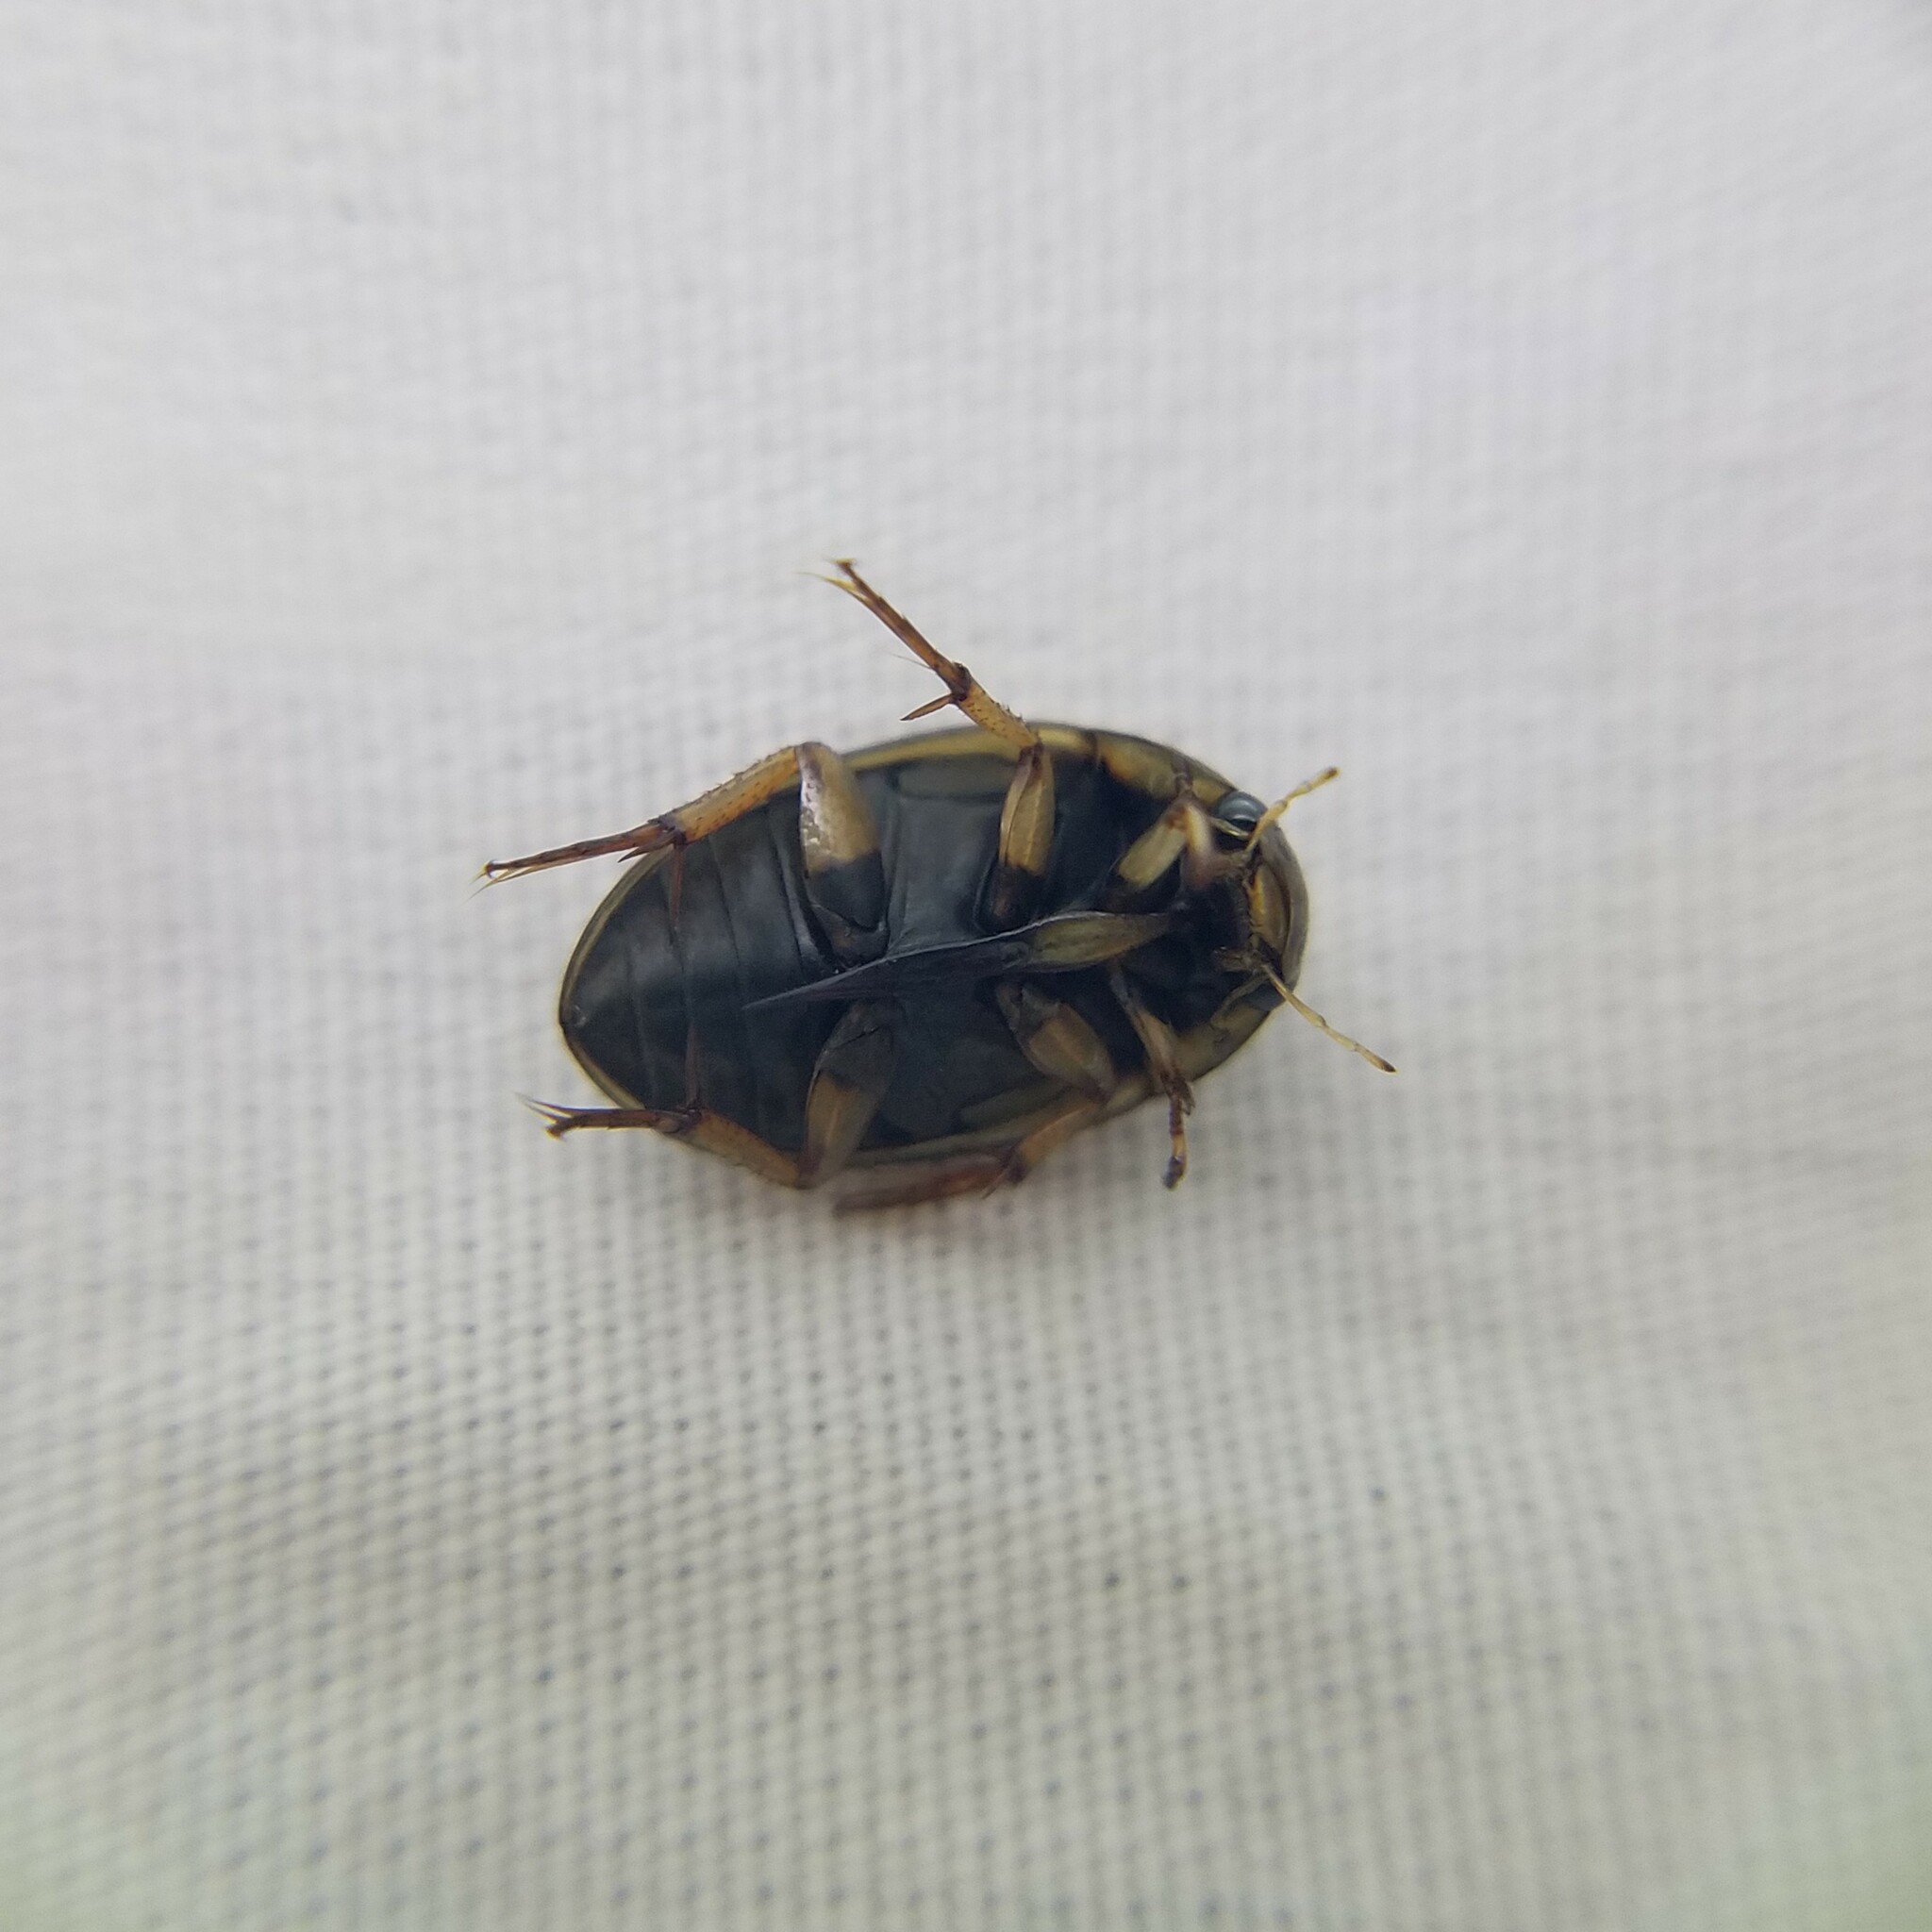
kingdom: Animalia
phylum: Arthropoda
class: Insecta
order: Coleoptera
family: Hydrophilidae
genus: Tropisternus
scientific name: Tropisternus collaris
